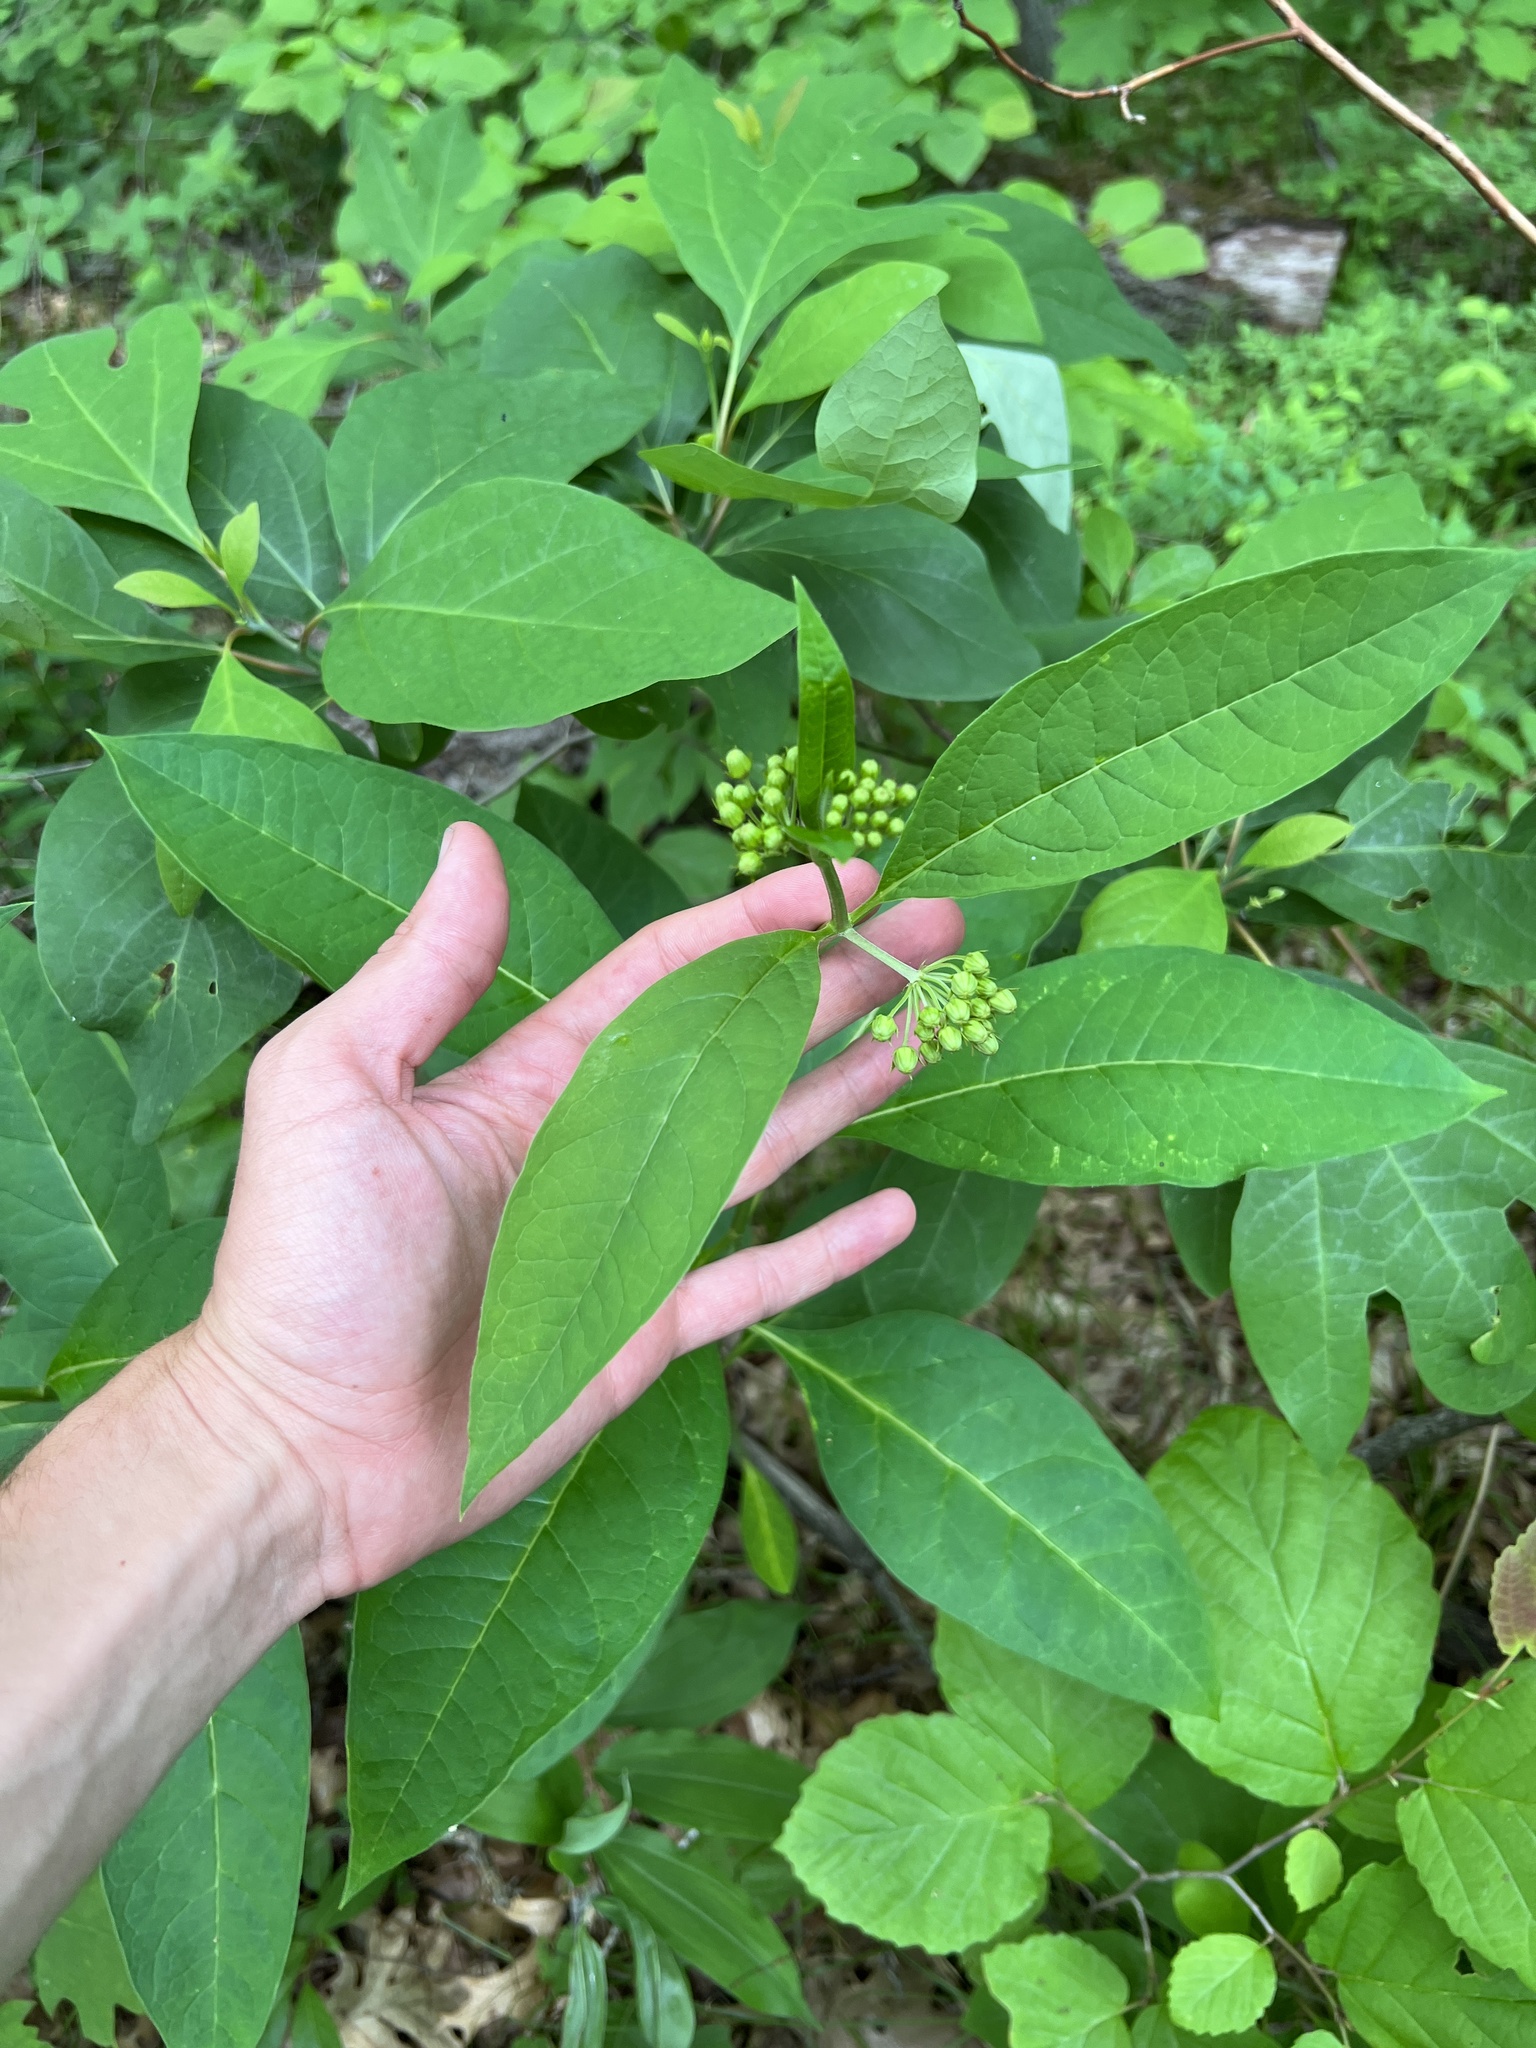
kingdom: Plantae
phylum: Tracheophyta
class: Magnoliopsida
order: Gentianales
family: Apocynaceae
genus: Asclepias
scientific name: Asclepias exaltata
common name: Poke milkweed
